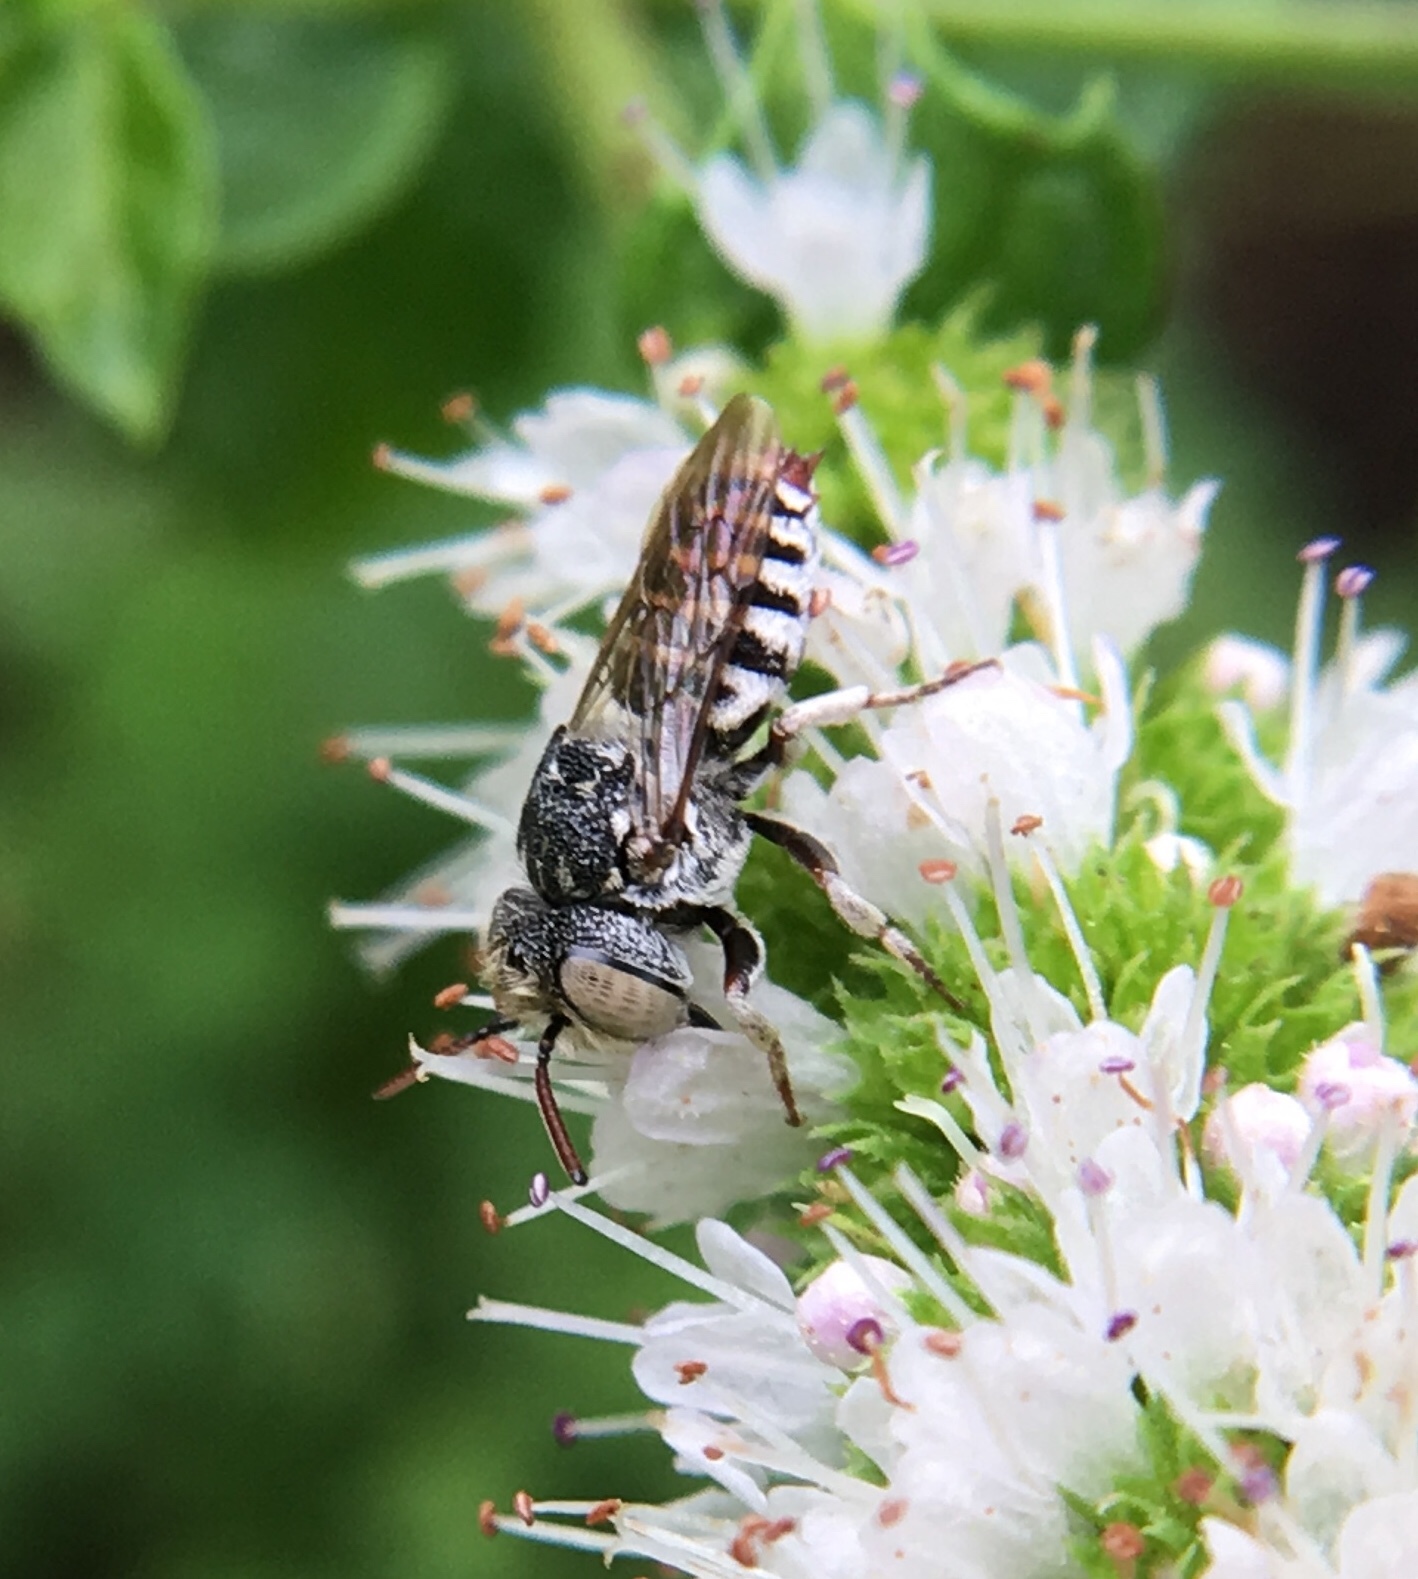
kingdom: Animalia
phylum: Arthropoda
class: Insecta
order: Hymenoptera
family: Megachilidae
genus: Coelioxys
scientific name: Coelioxys coturnix
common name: Red-tailed cuckoo-leaf-cutter bee
